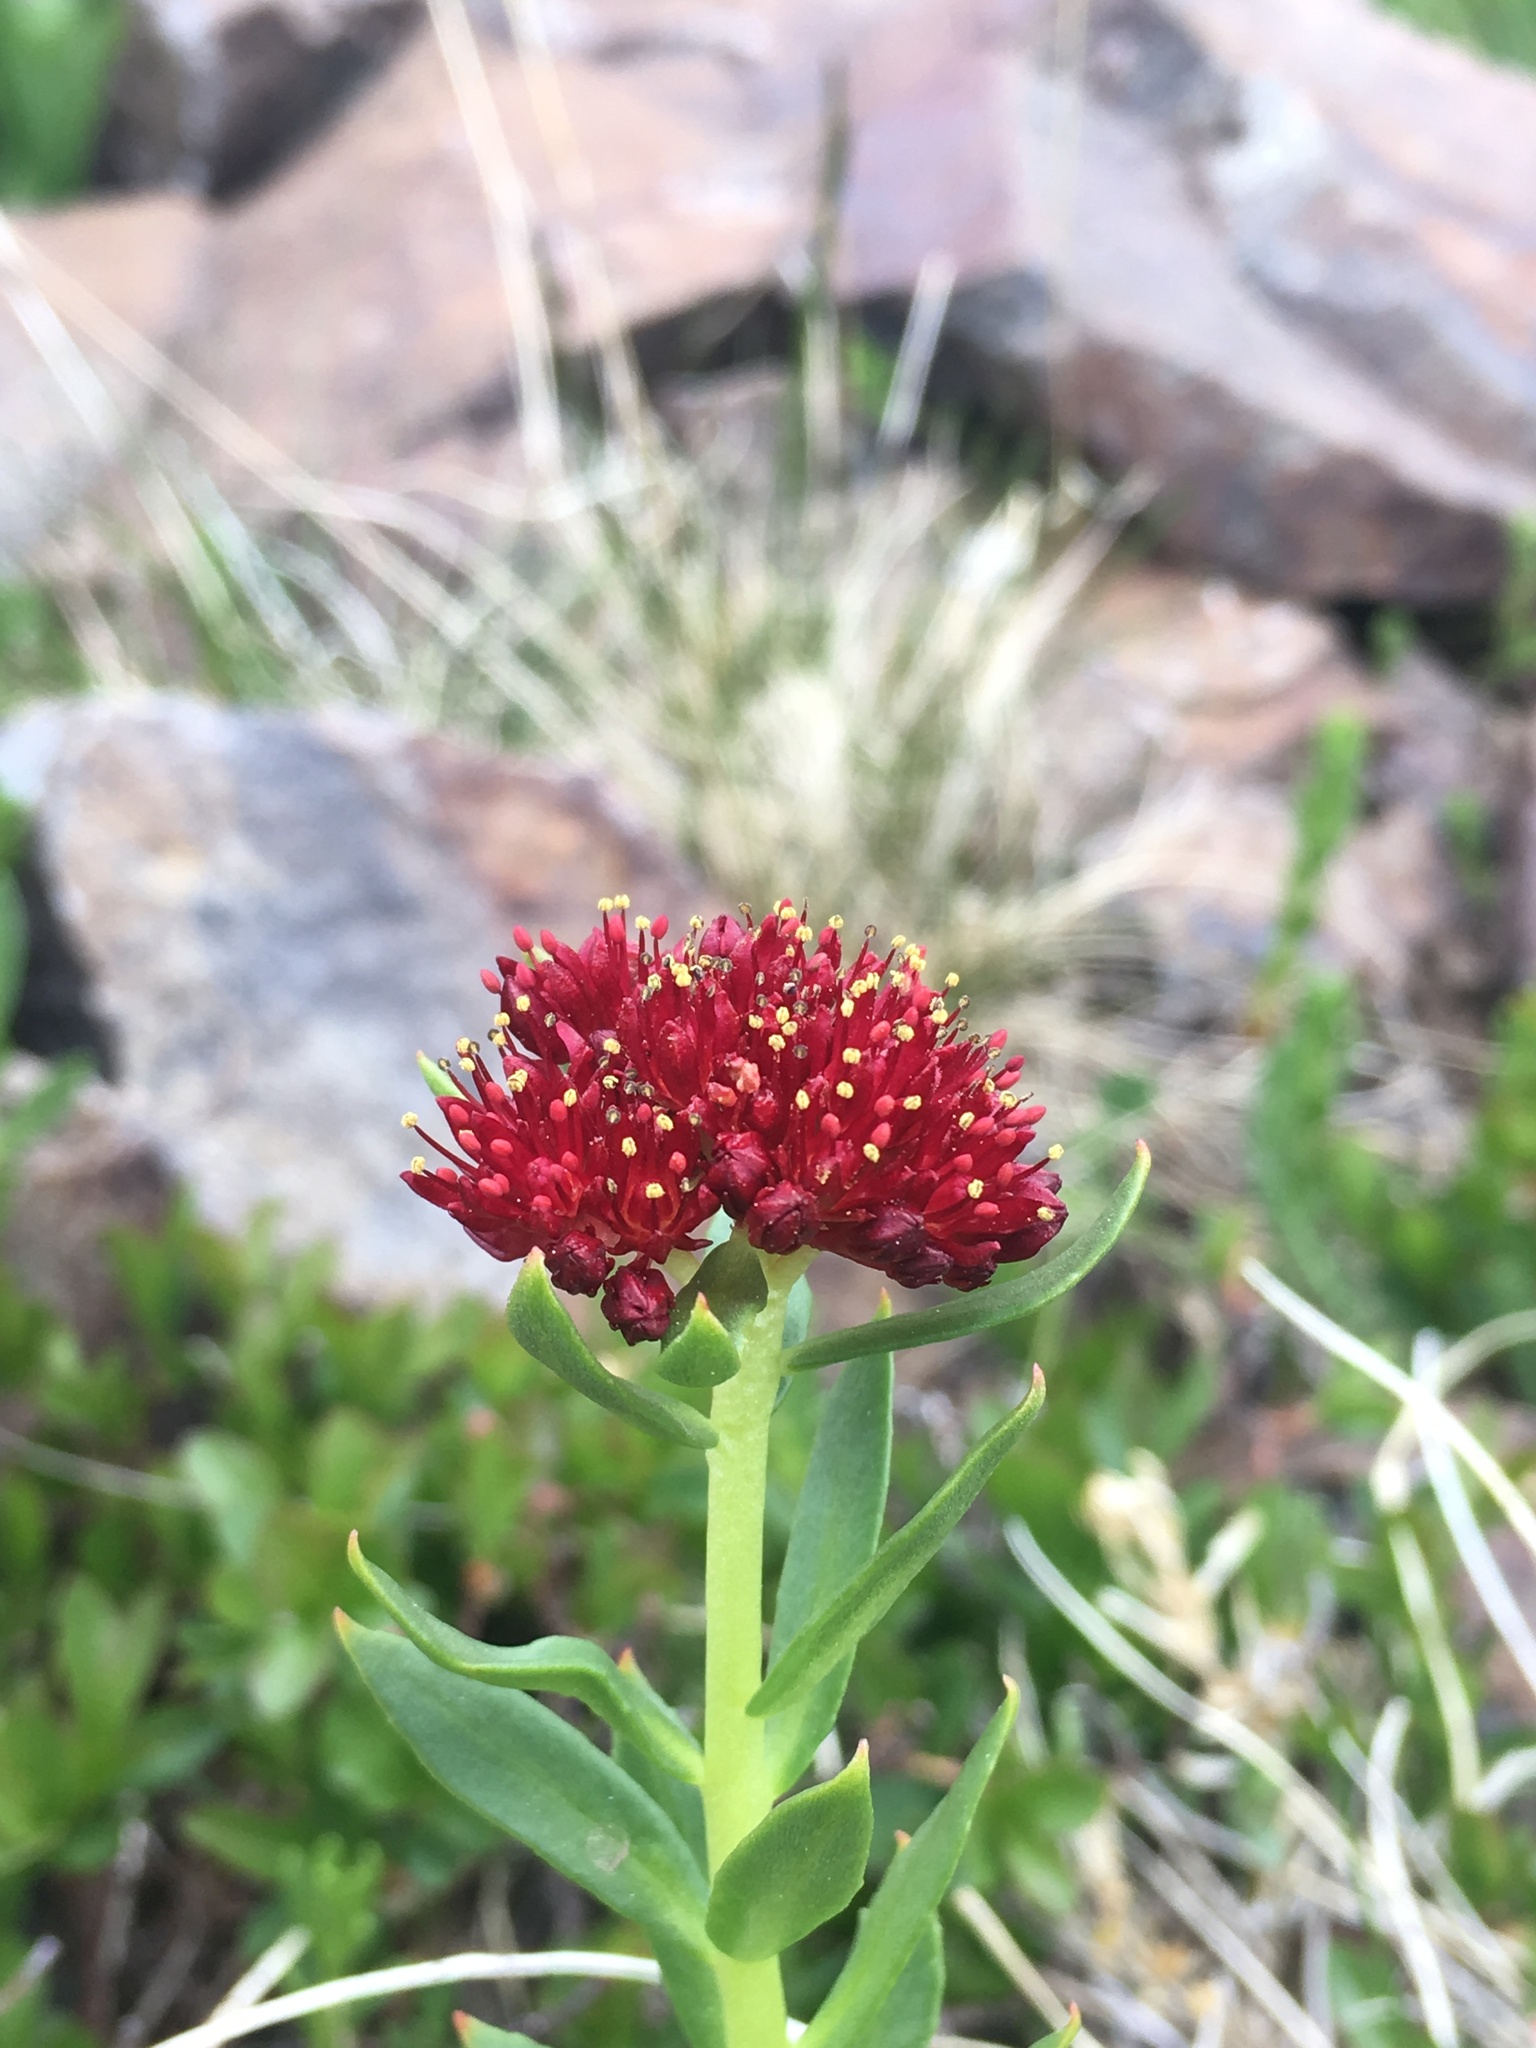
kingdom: Plantae
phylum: Tracheophyta
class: Magnoliopsida
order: Saxifragales
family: Crassulaceae
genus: Rhodiola
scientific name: Rhodiola integrifolia
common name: Western roseroot
